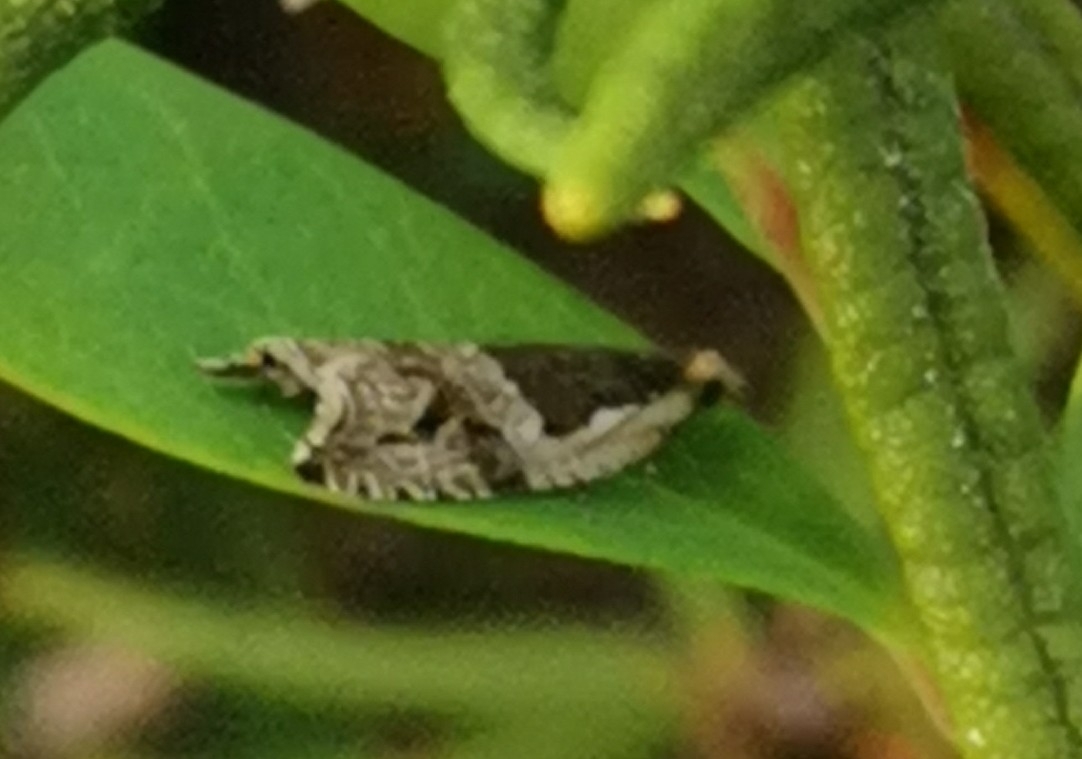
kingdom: Animalia
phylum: Arthropoda
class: Insecta
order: Lepidoptera
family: Tortricidae
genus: Ancylis
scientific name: Ancylis myrtillana
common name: Bilberry roller
